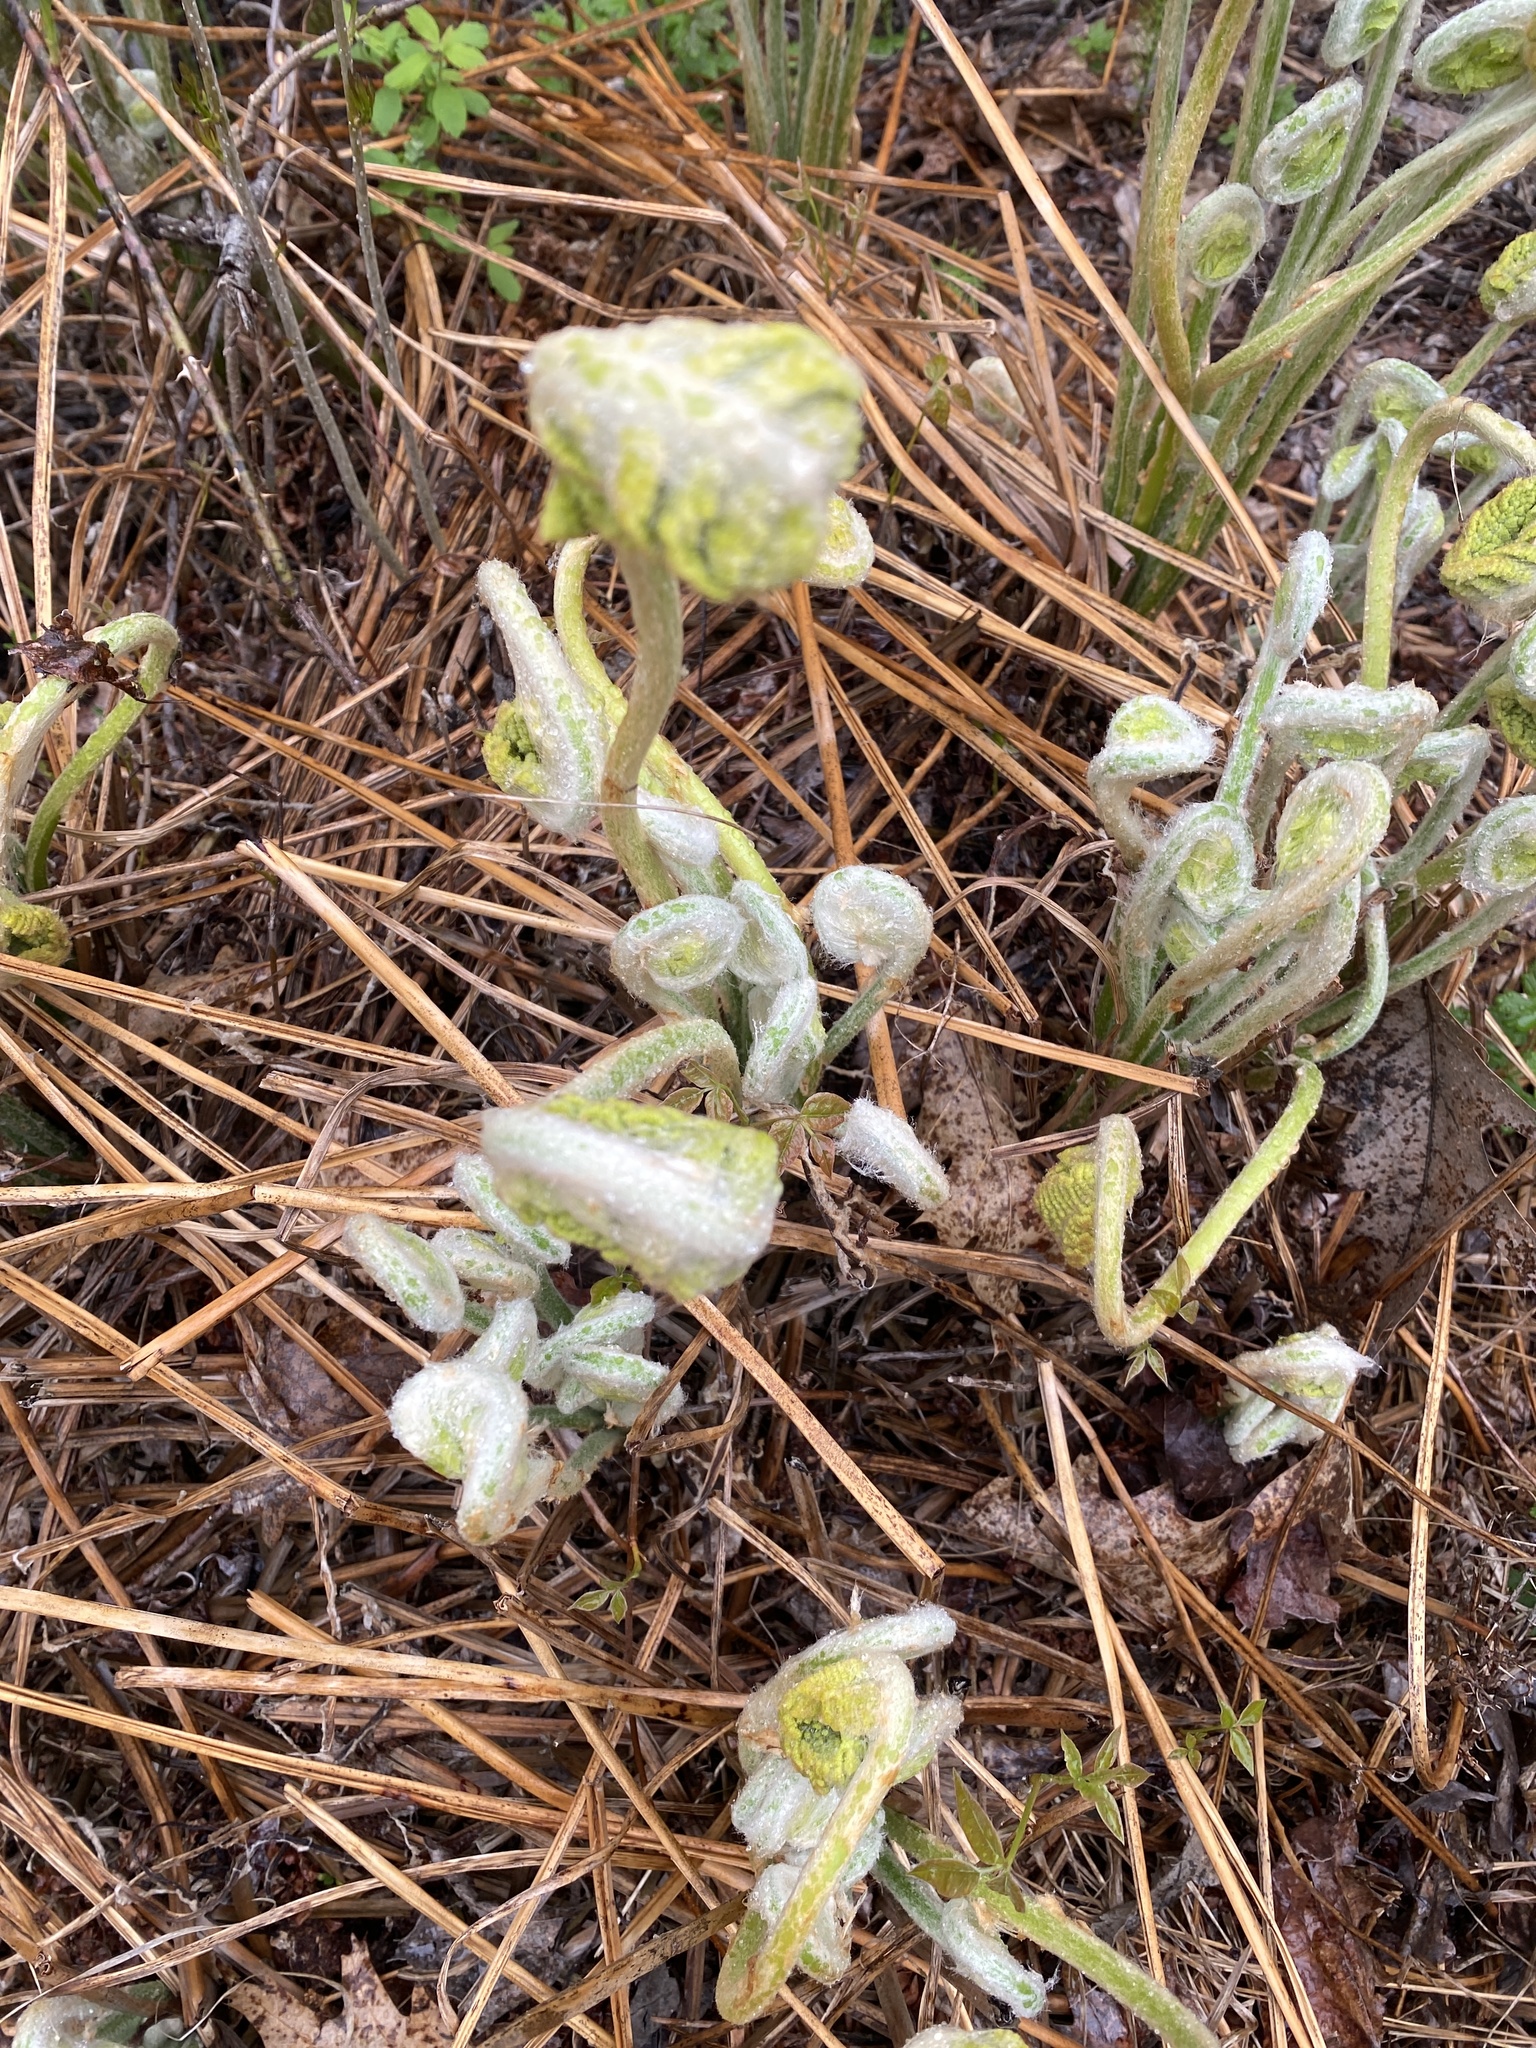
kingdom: Plantae
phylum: Tracheophyta
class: Polypodiopsida
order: Osmundales
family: Osmundaceae
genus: Osmundastrum
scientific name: Osmundastrum cinnamomeum
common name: Cinnamon fern
